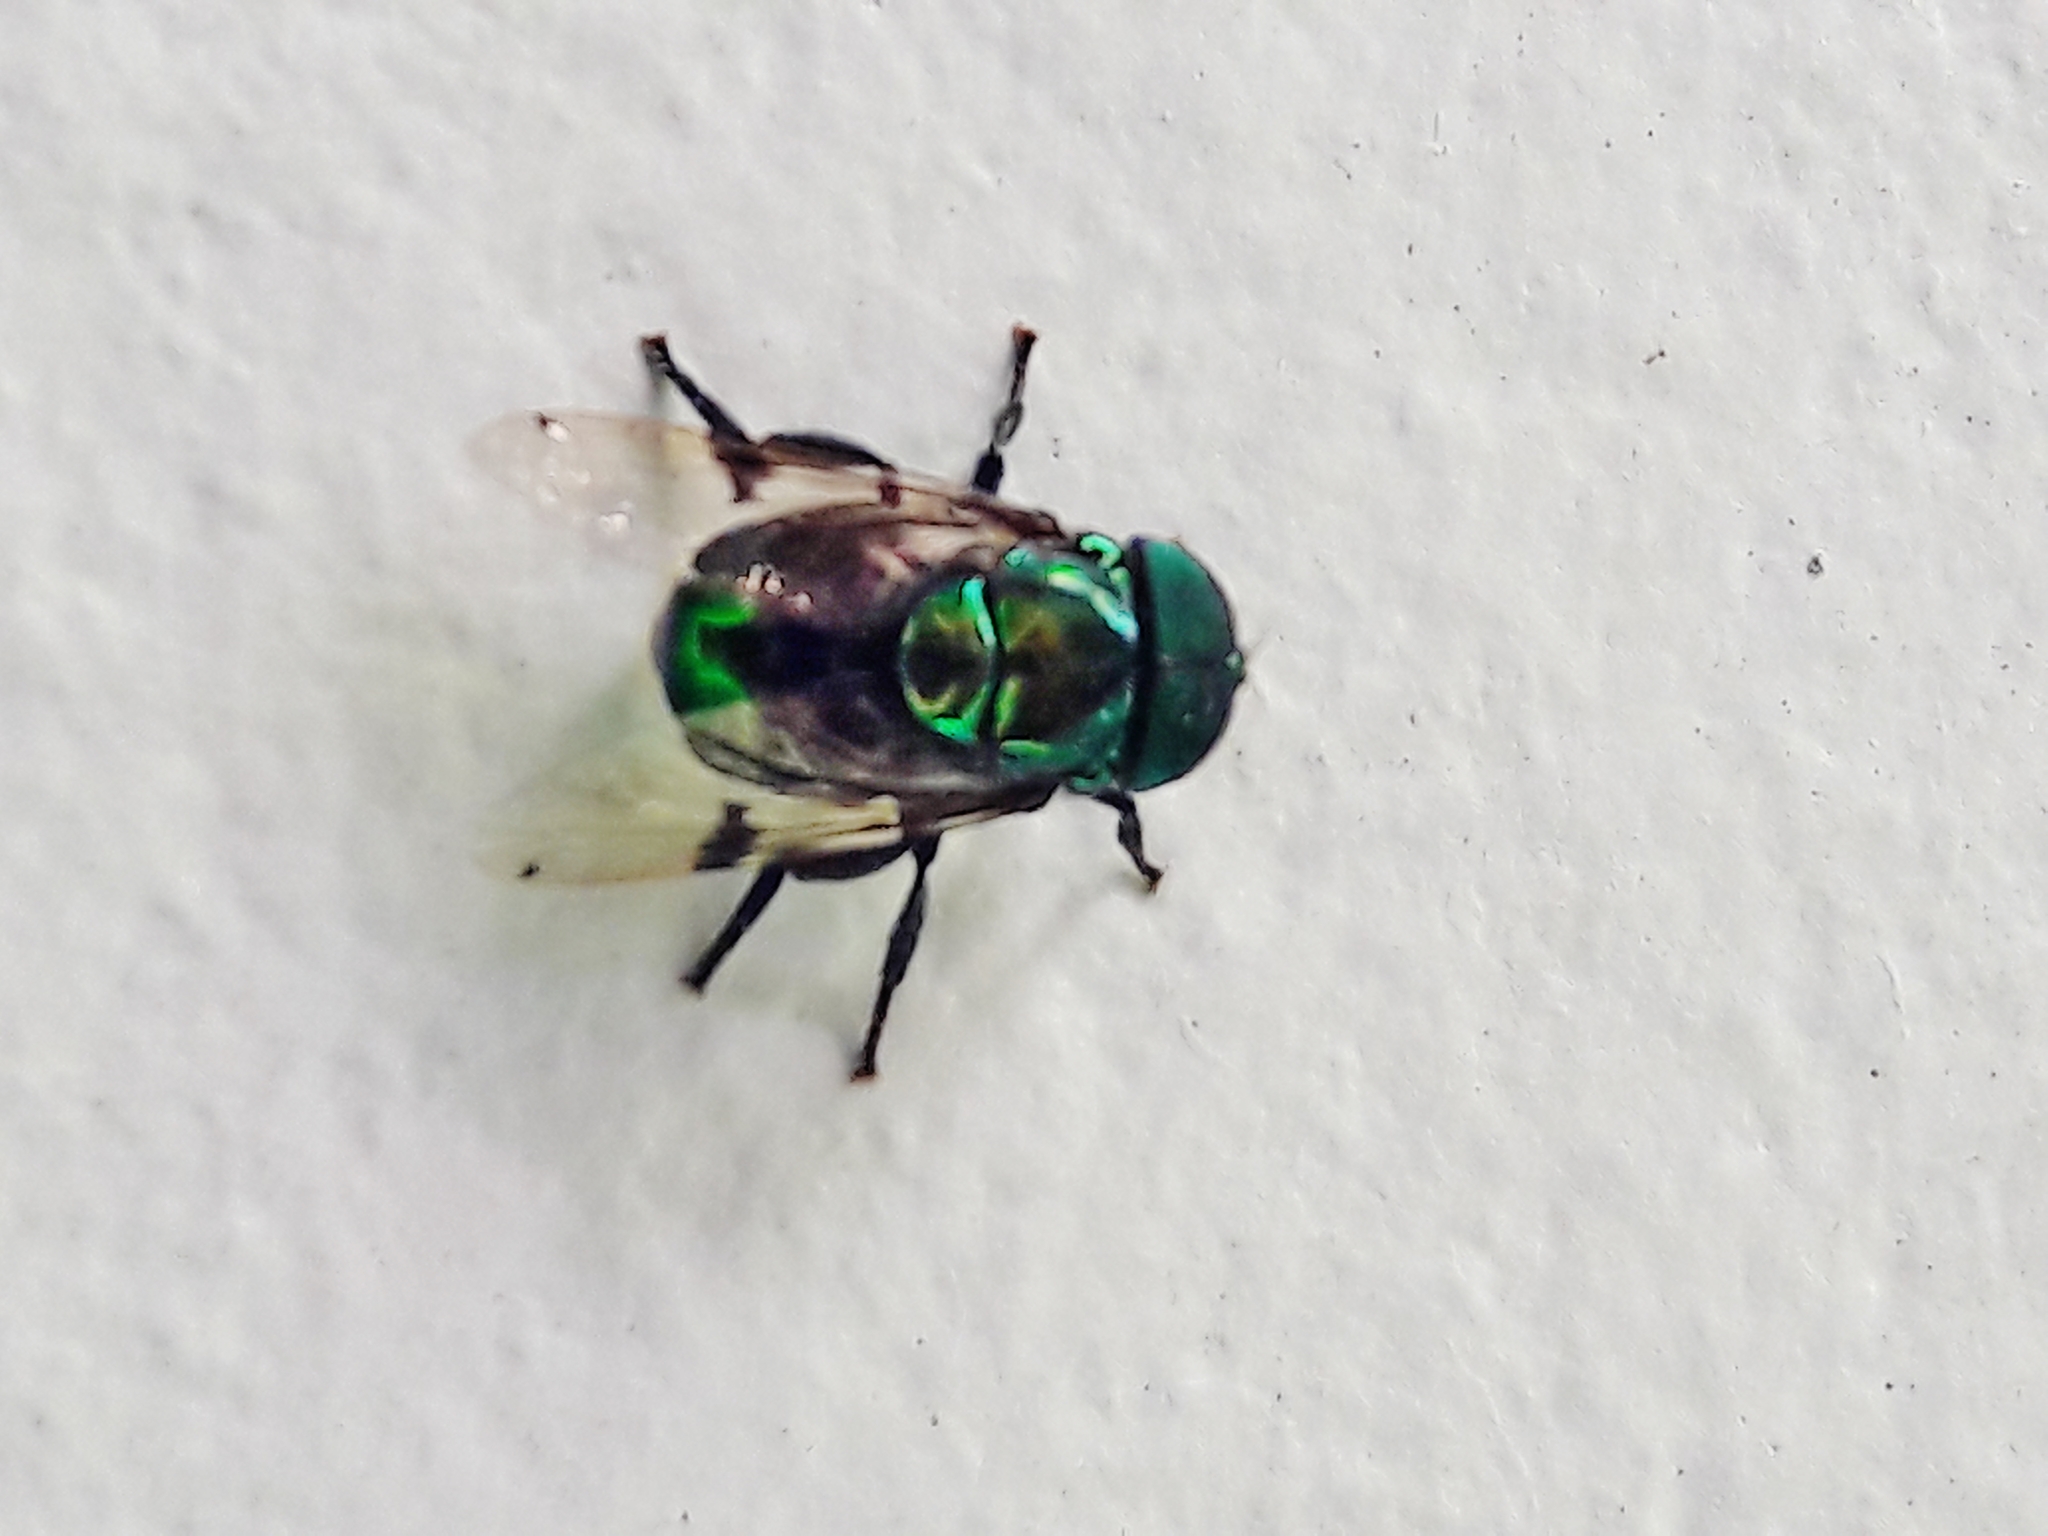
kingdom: Animalia
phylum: Arthropoda
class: Insecta
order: Diptera
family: Syrphidae
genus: Ornidia
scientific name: Ornidia obesa
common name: Syrphid fly
